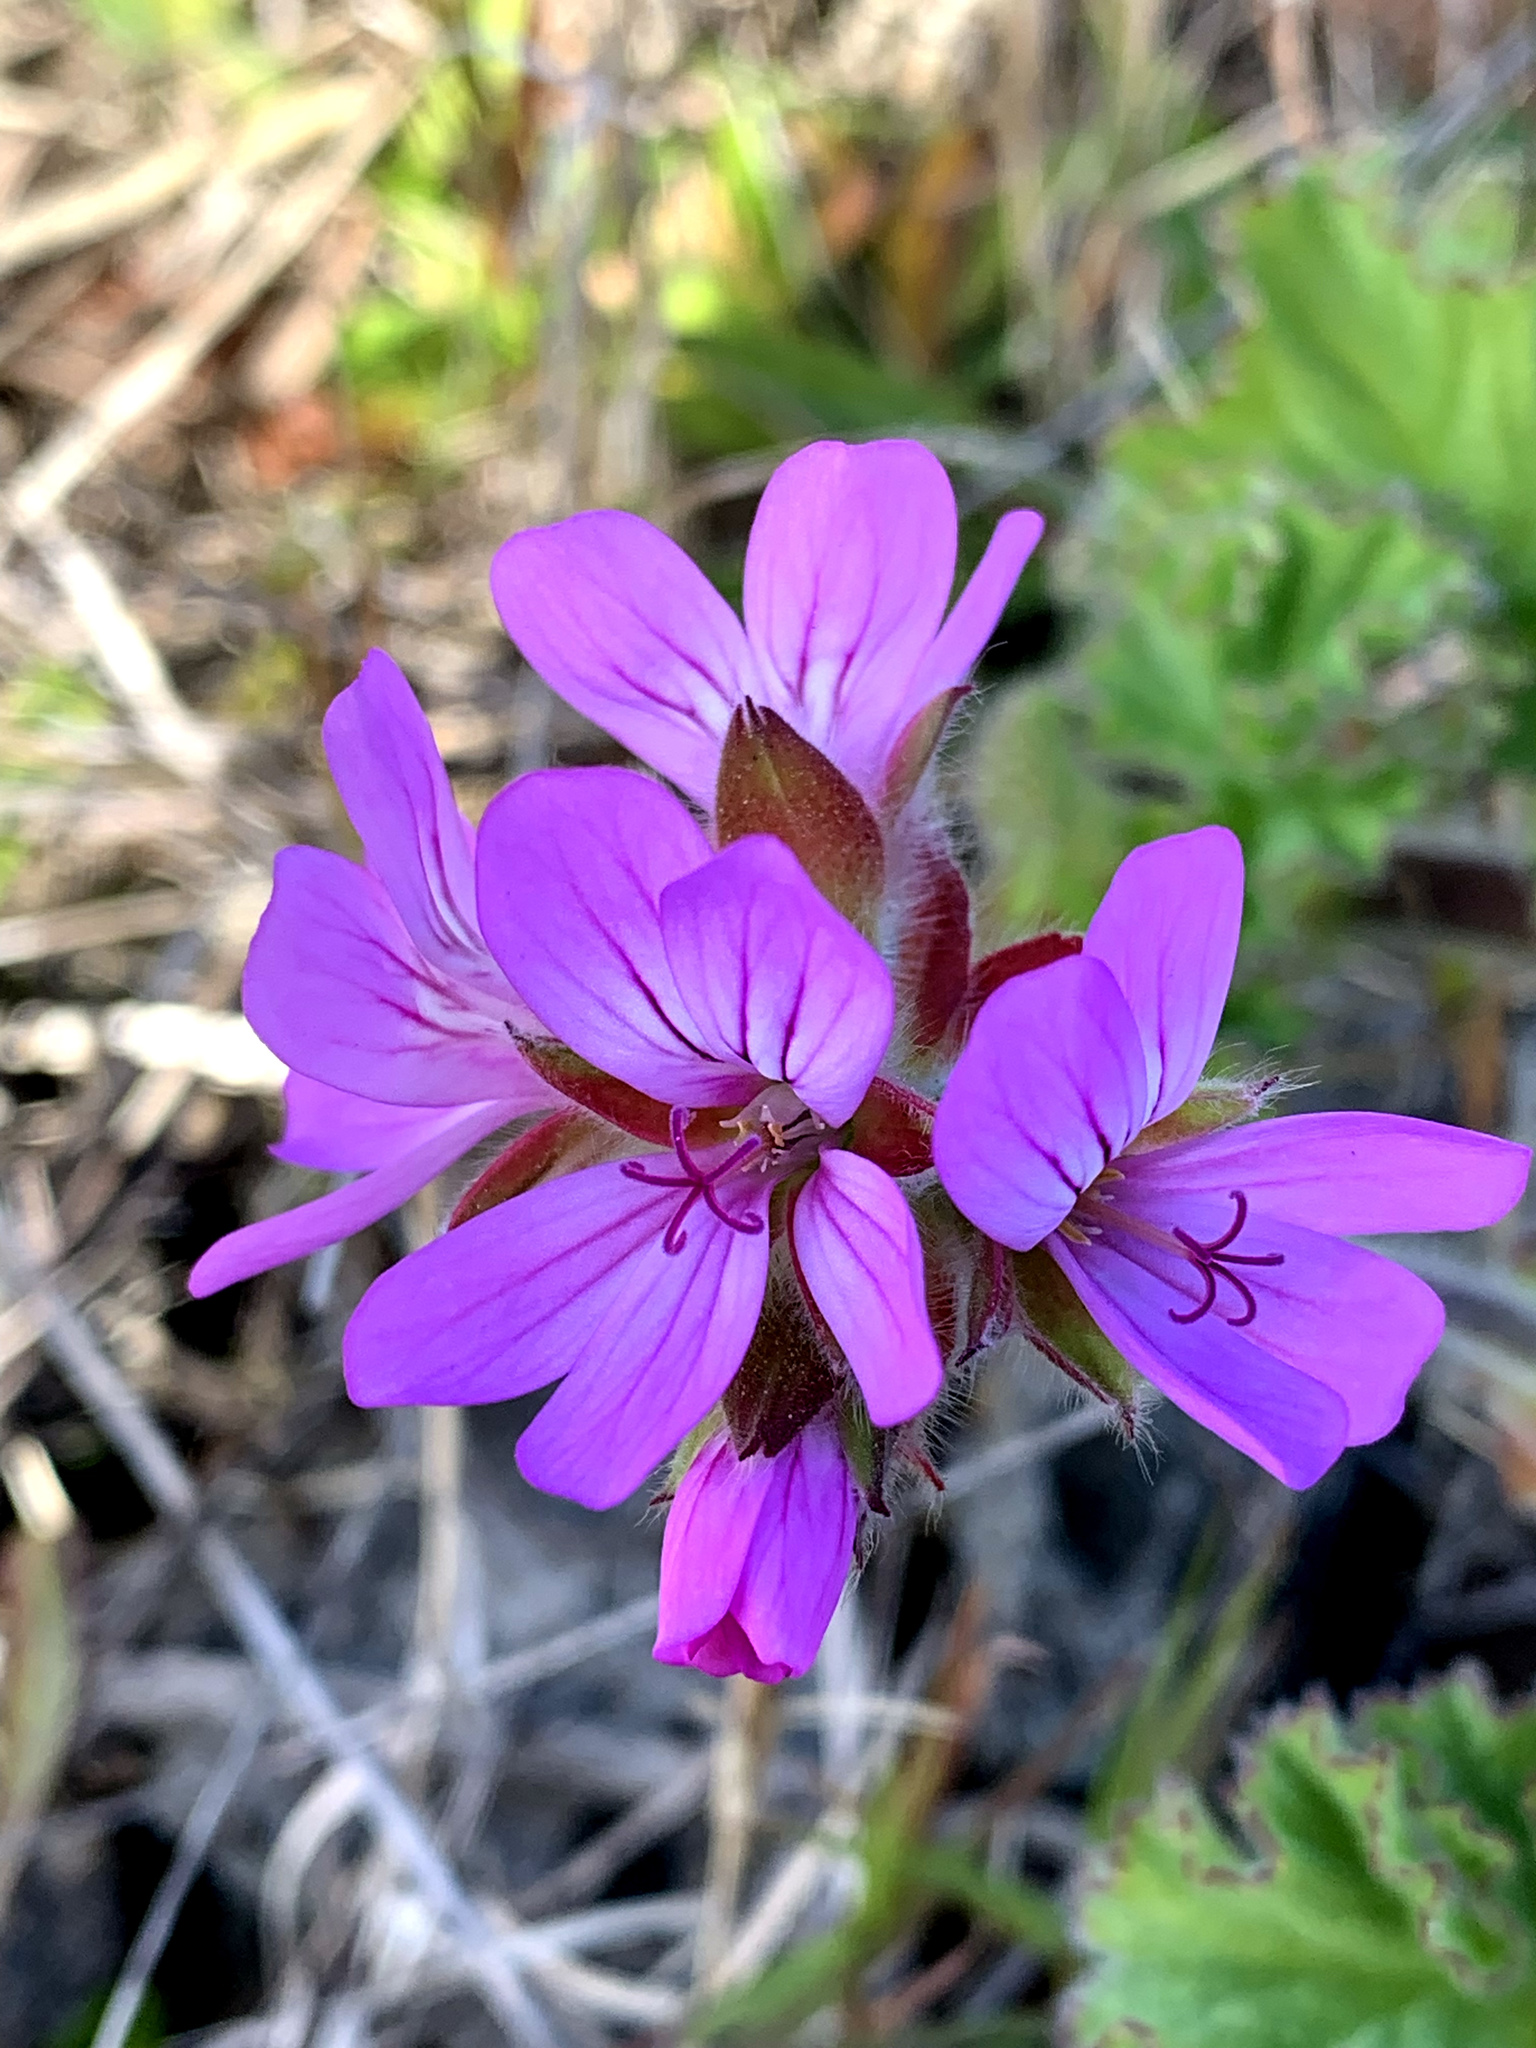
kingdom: Plantae
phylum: Tracheophyta
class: Magnoliopsida
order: Geraniales
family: Geraniaceae
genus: Pelargonium
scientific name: Pelargonium capitatum
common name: Rose scented geranium
